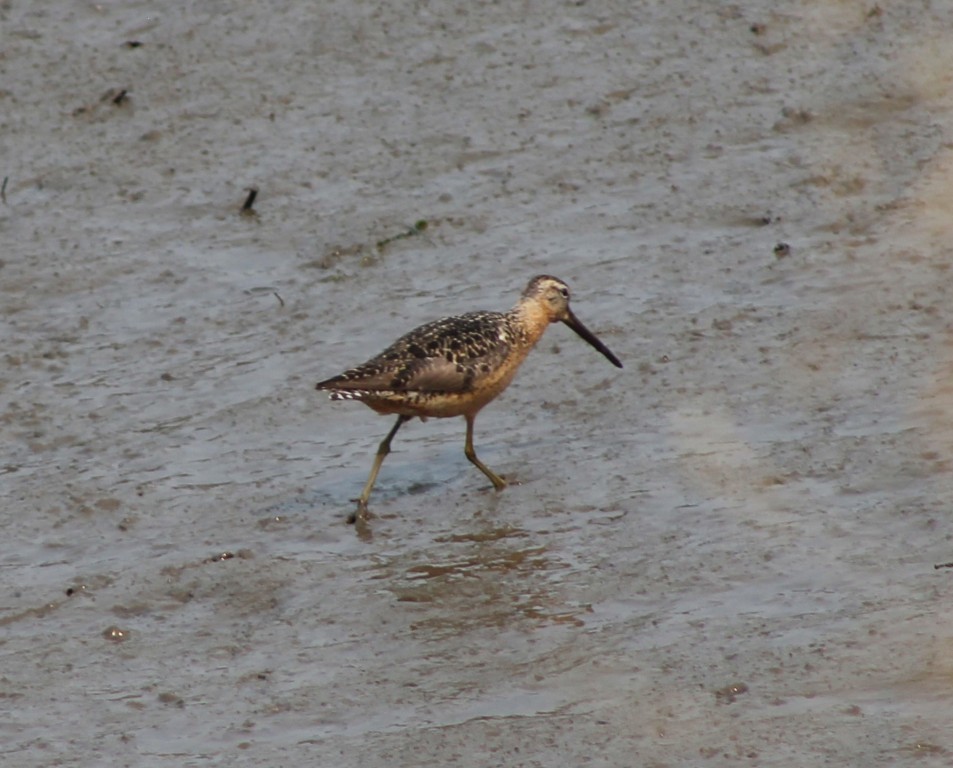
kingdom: Animalia
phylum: Chordata
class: Aves
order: Charadriiformes
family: Scolopacidae
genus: Limnodromus
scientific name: Limnodromus scolopaceus
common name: Long-billed dowitcher
